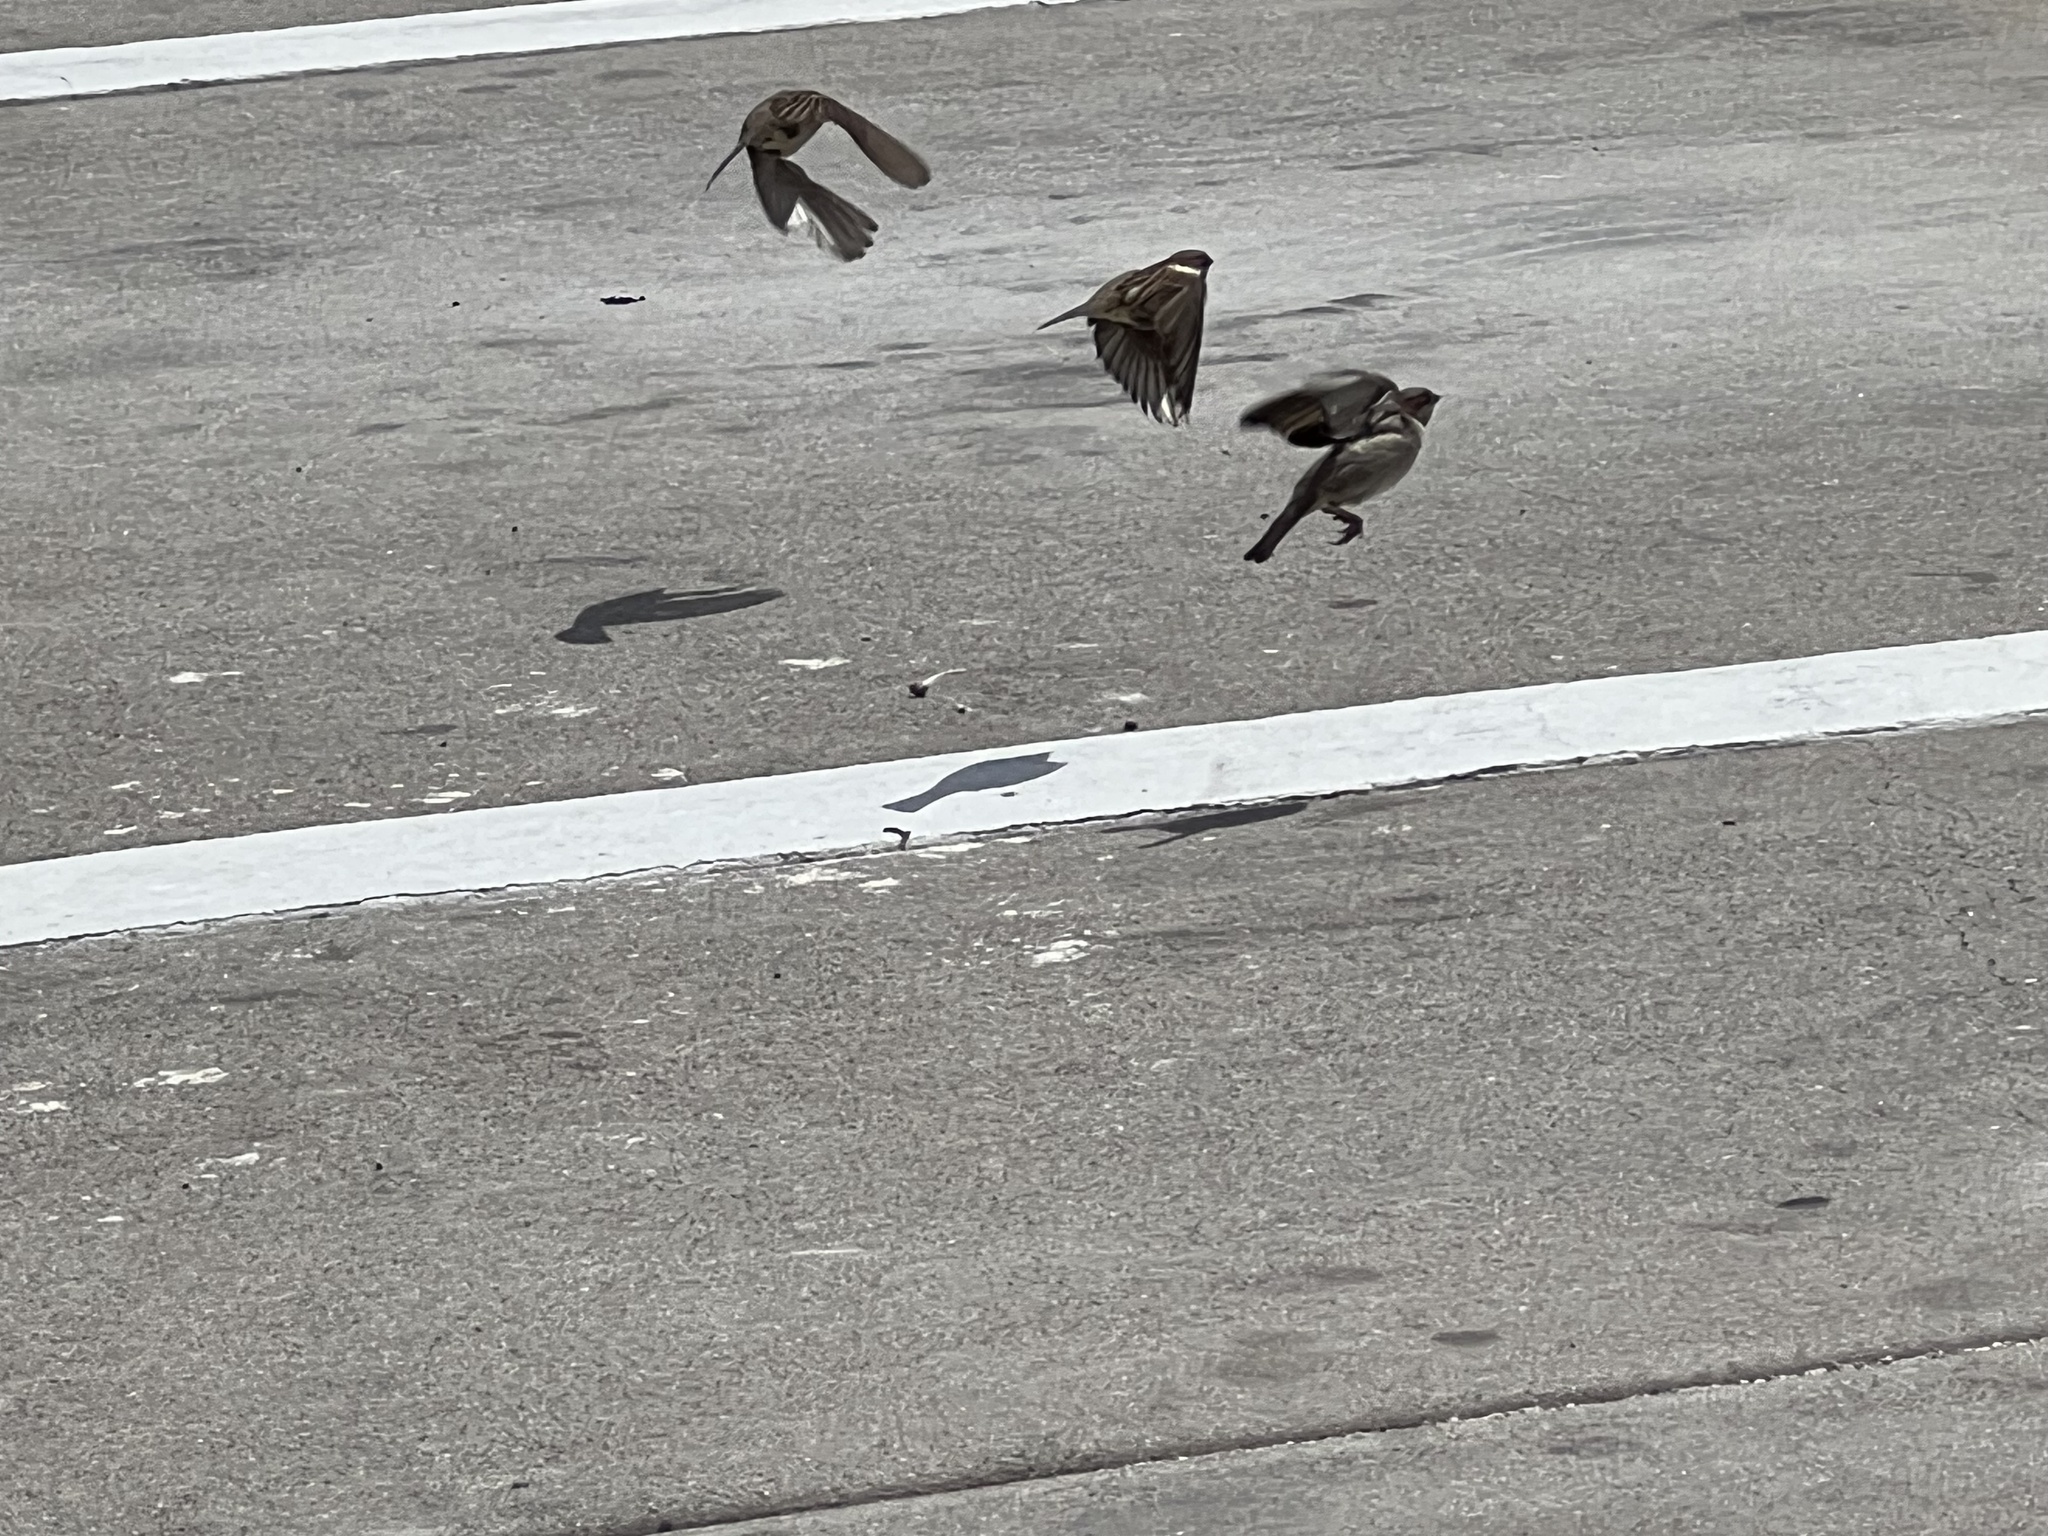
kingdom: Animalia
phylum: Chordata
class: Aves
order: Passeriformes
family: Passeridae
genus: Passer
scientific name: Passer domesticus
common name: House sparrow
